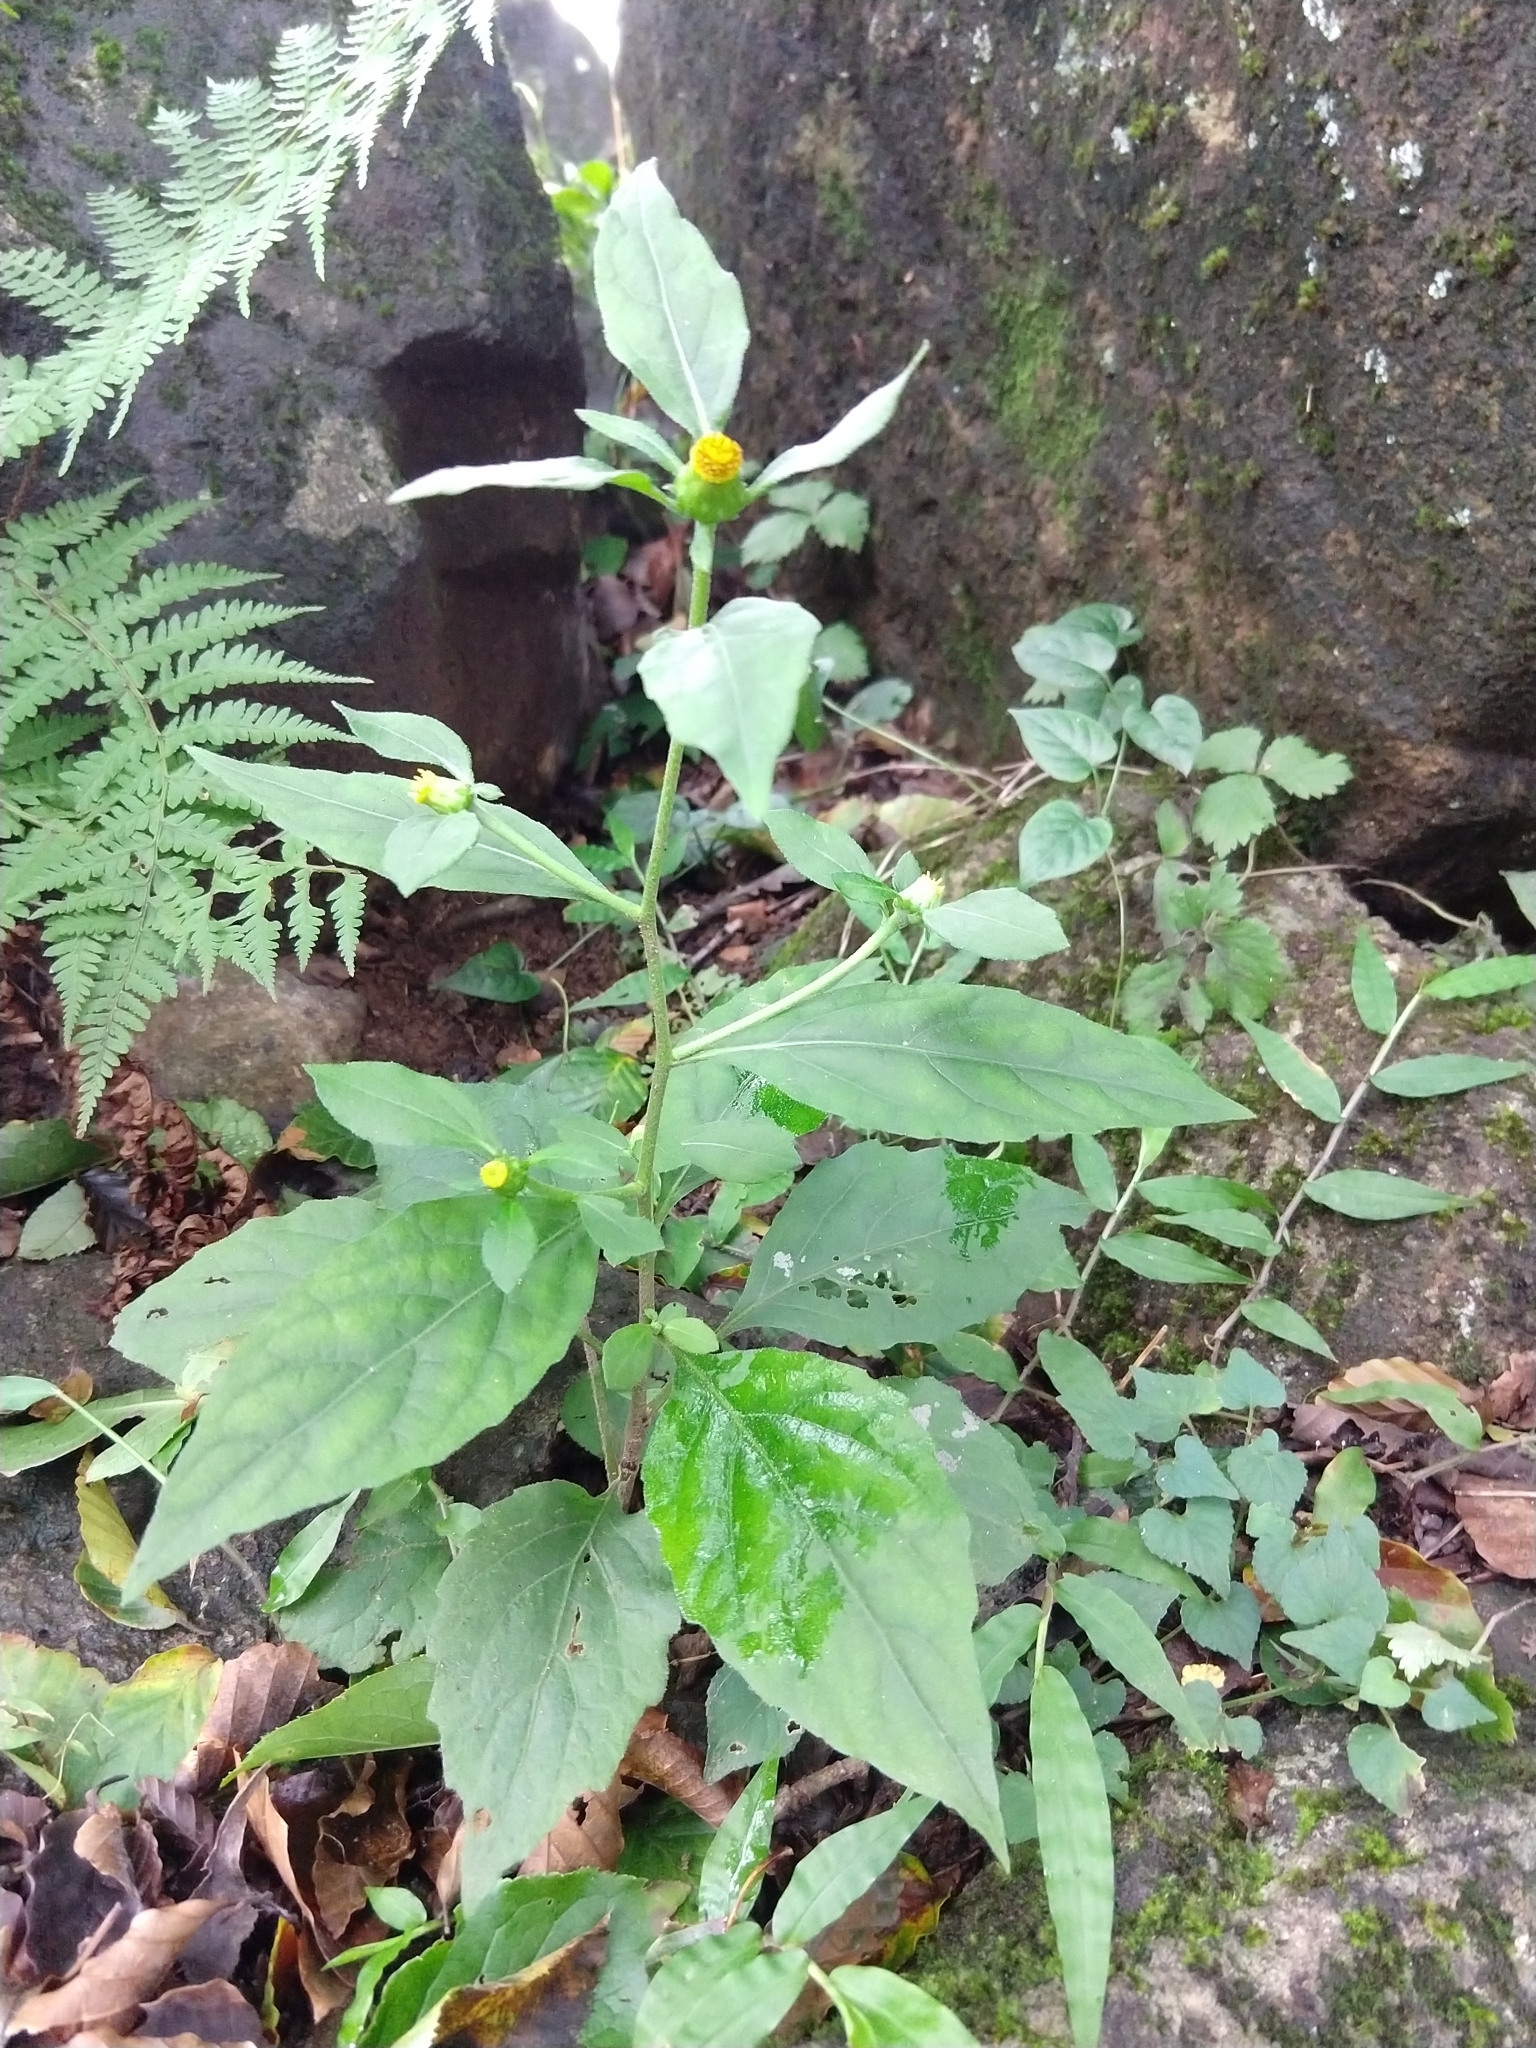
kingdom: Plantae
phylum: Tracheophyta
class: Magnoliopsida
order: Asterales
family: Asteraceae
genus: Carpesium
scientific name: Carpesium divaricatum
